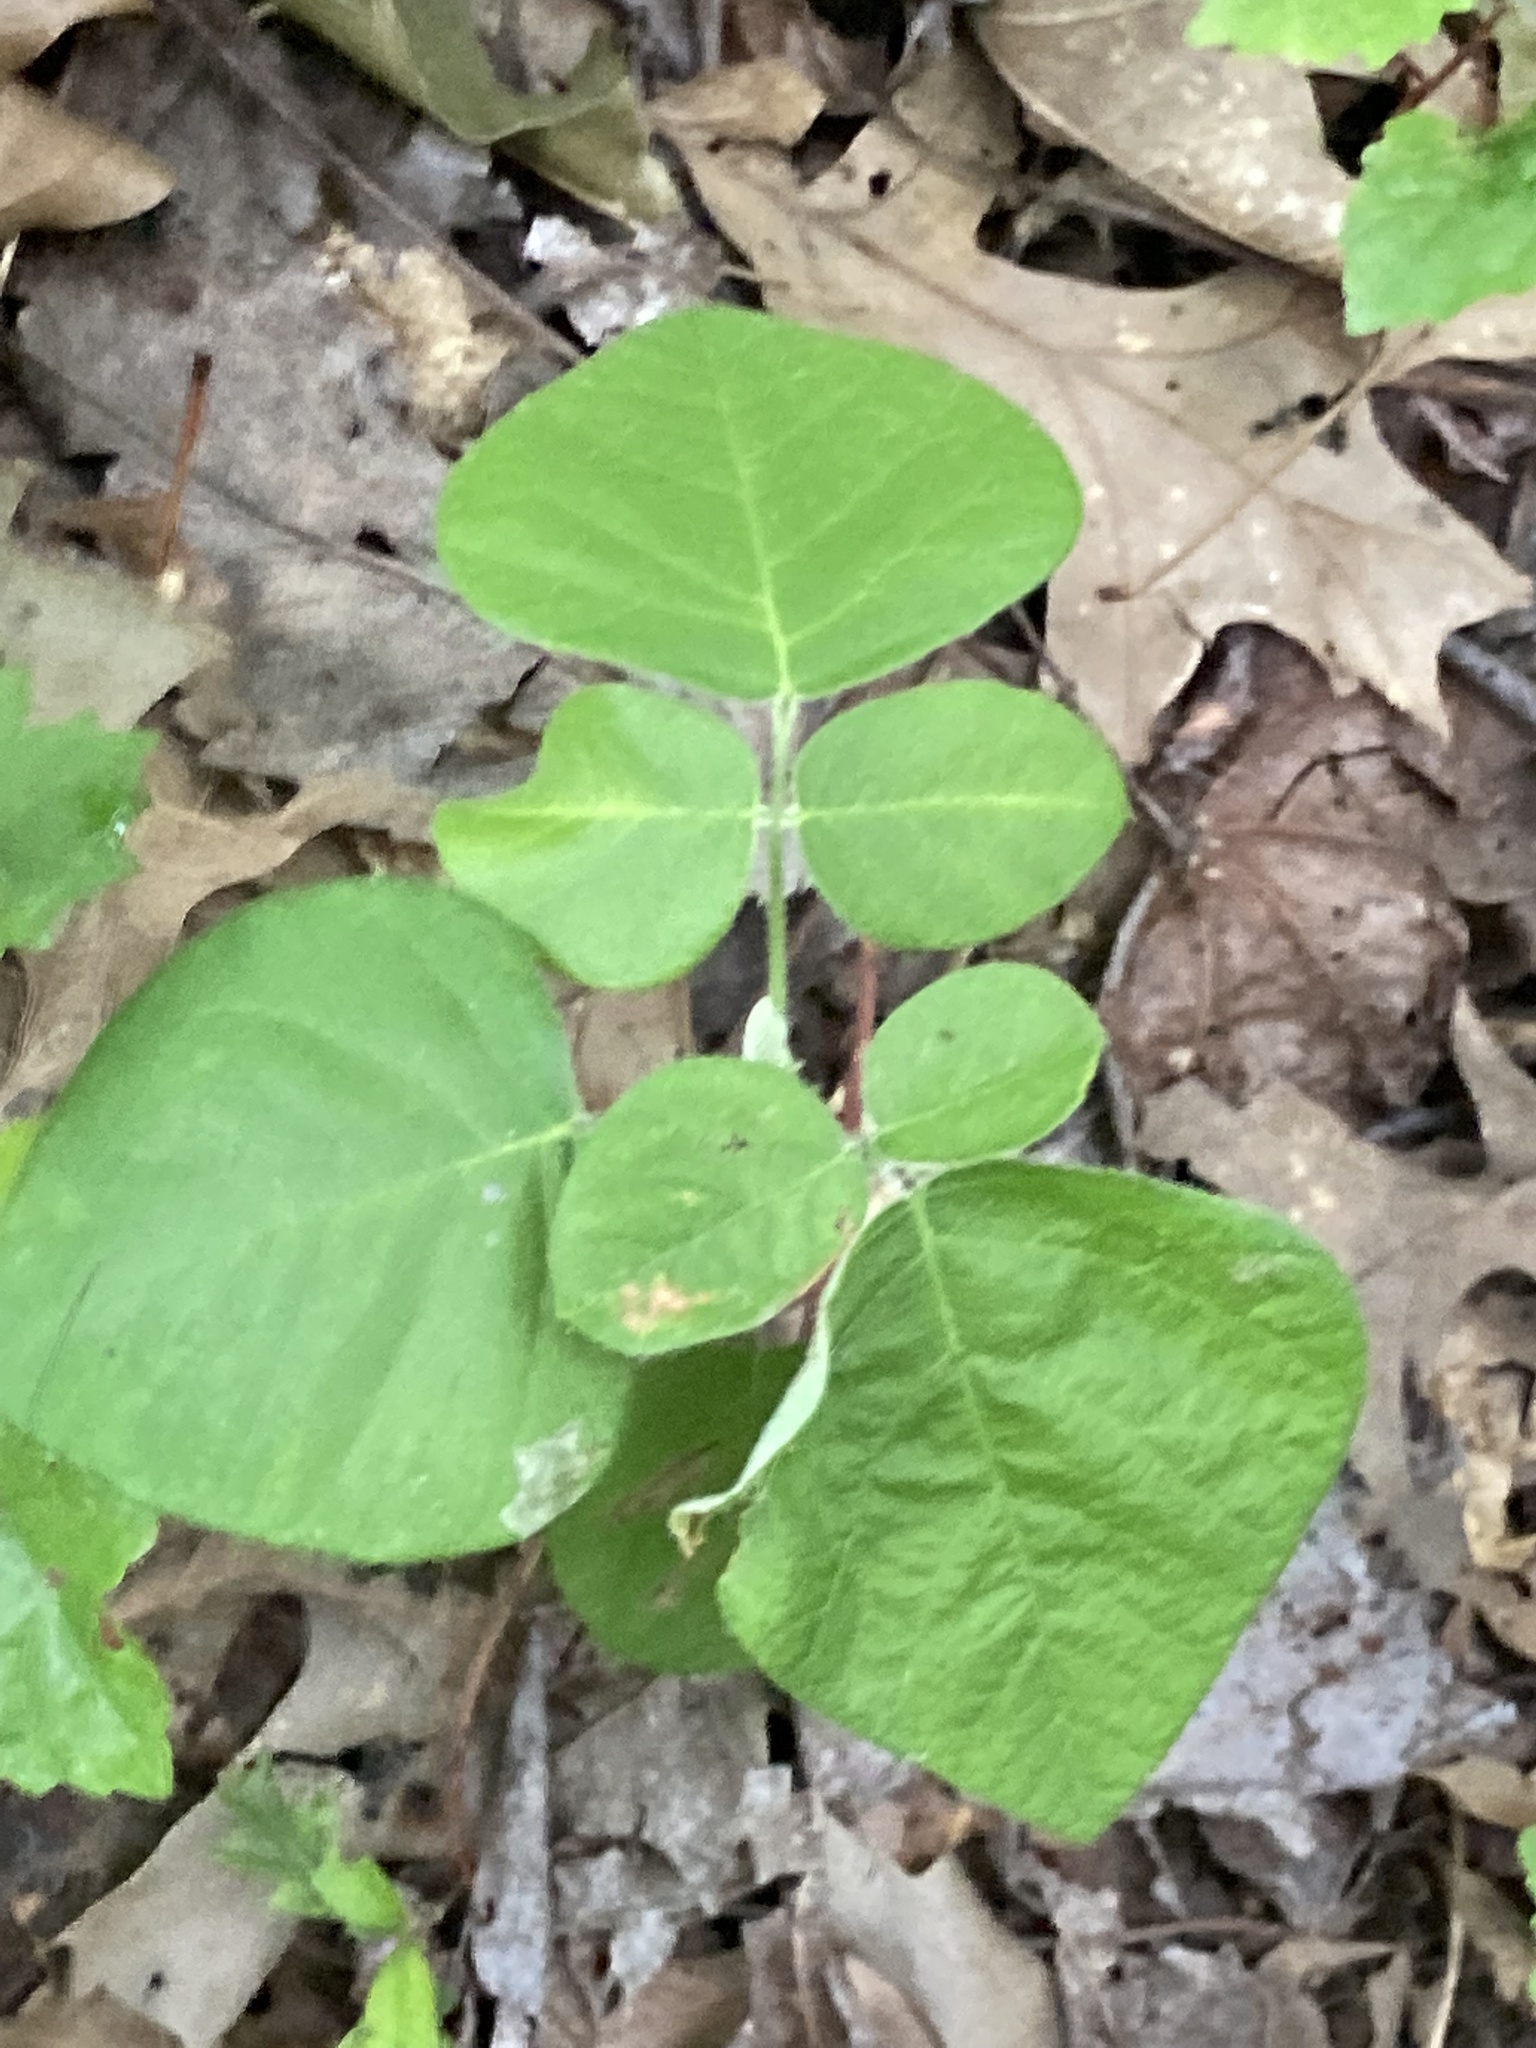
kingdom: Plantae
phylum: Tracheophyta
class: Magnoliopsida
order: Fabales
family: Fabaceae
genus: Desmodium
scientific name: Desmodium viridiflorum
